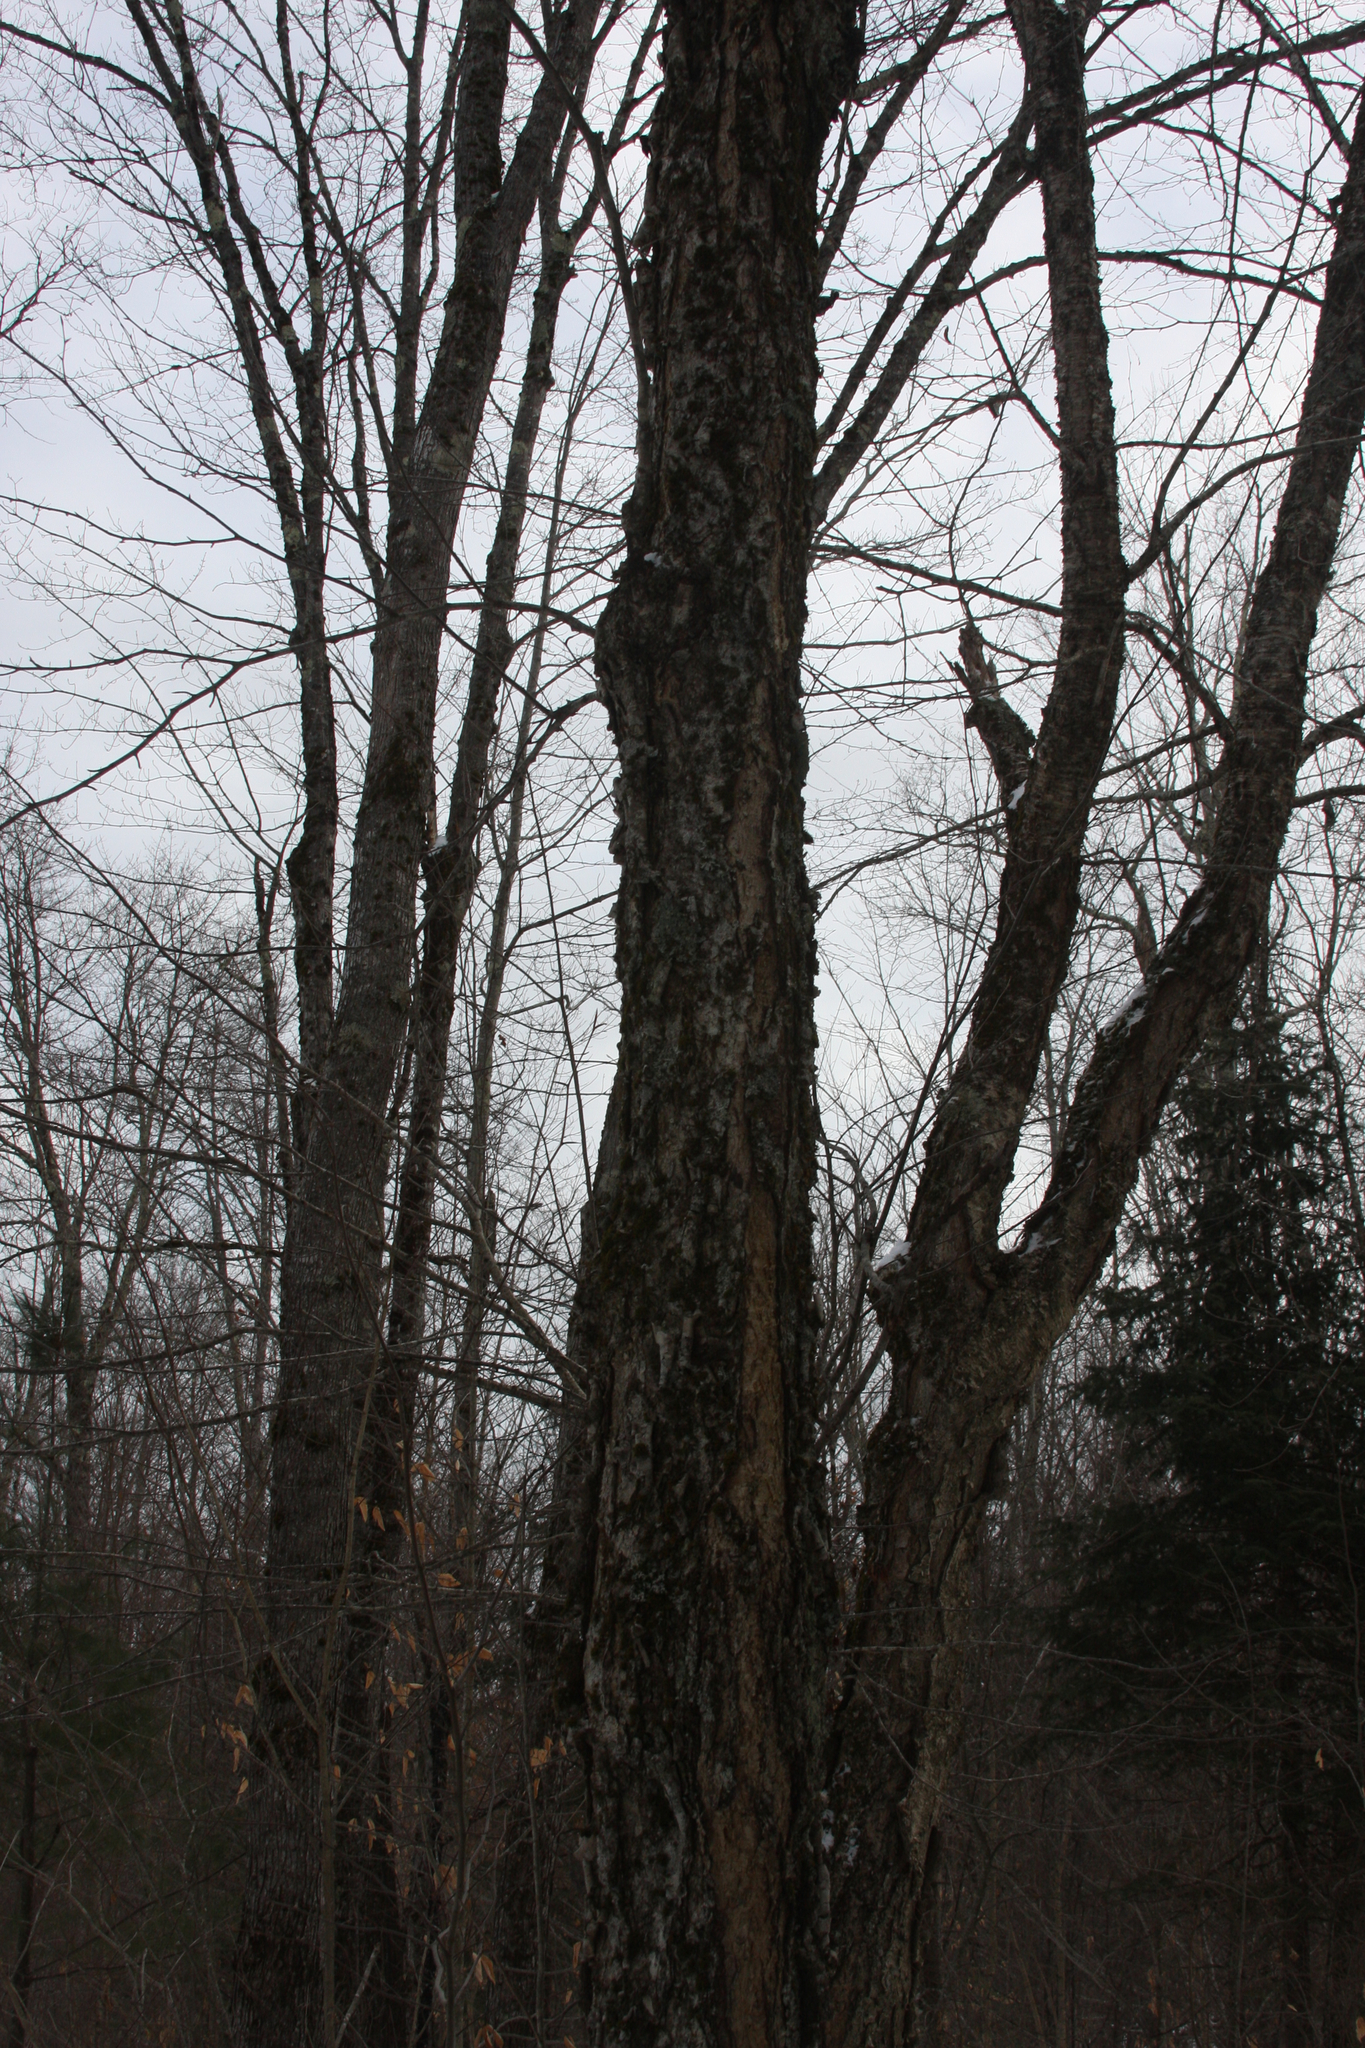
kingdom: Plantae
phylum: Tracheophyta
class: Magnoliopsida
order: Fagales
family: Betulaceae
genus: Betula
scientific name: Betula alleghaniensis
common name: Yellow birch
